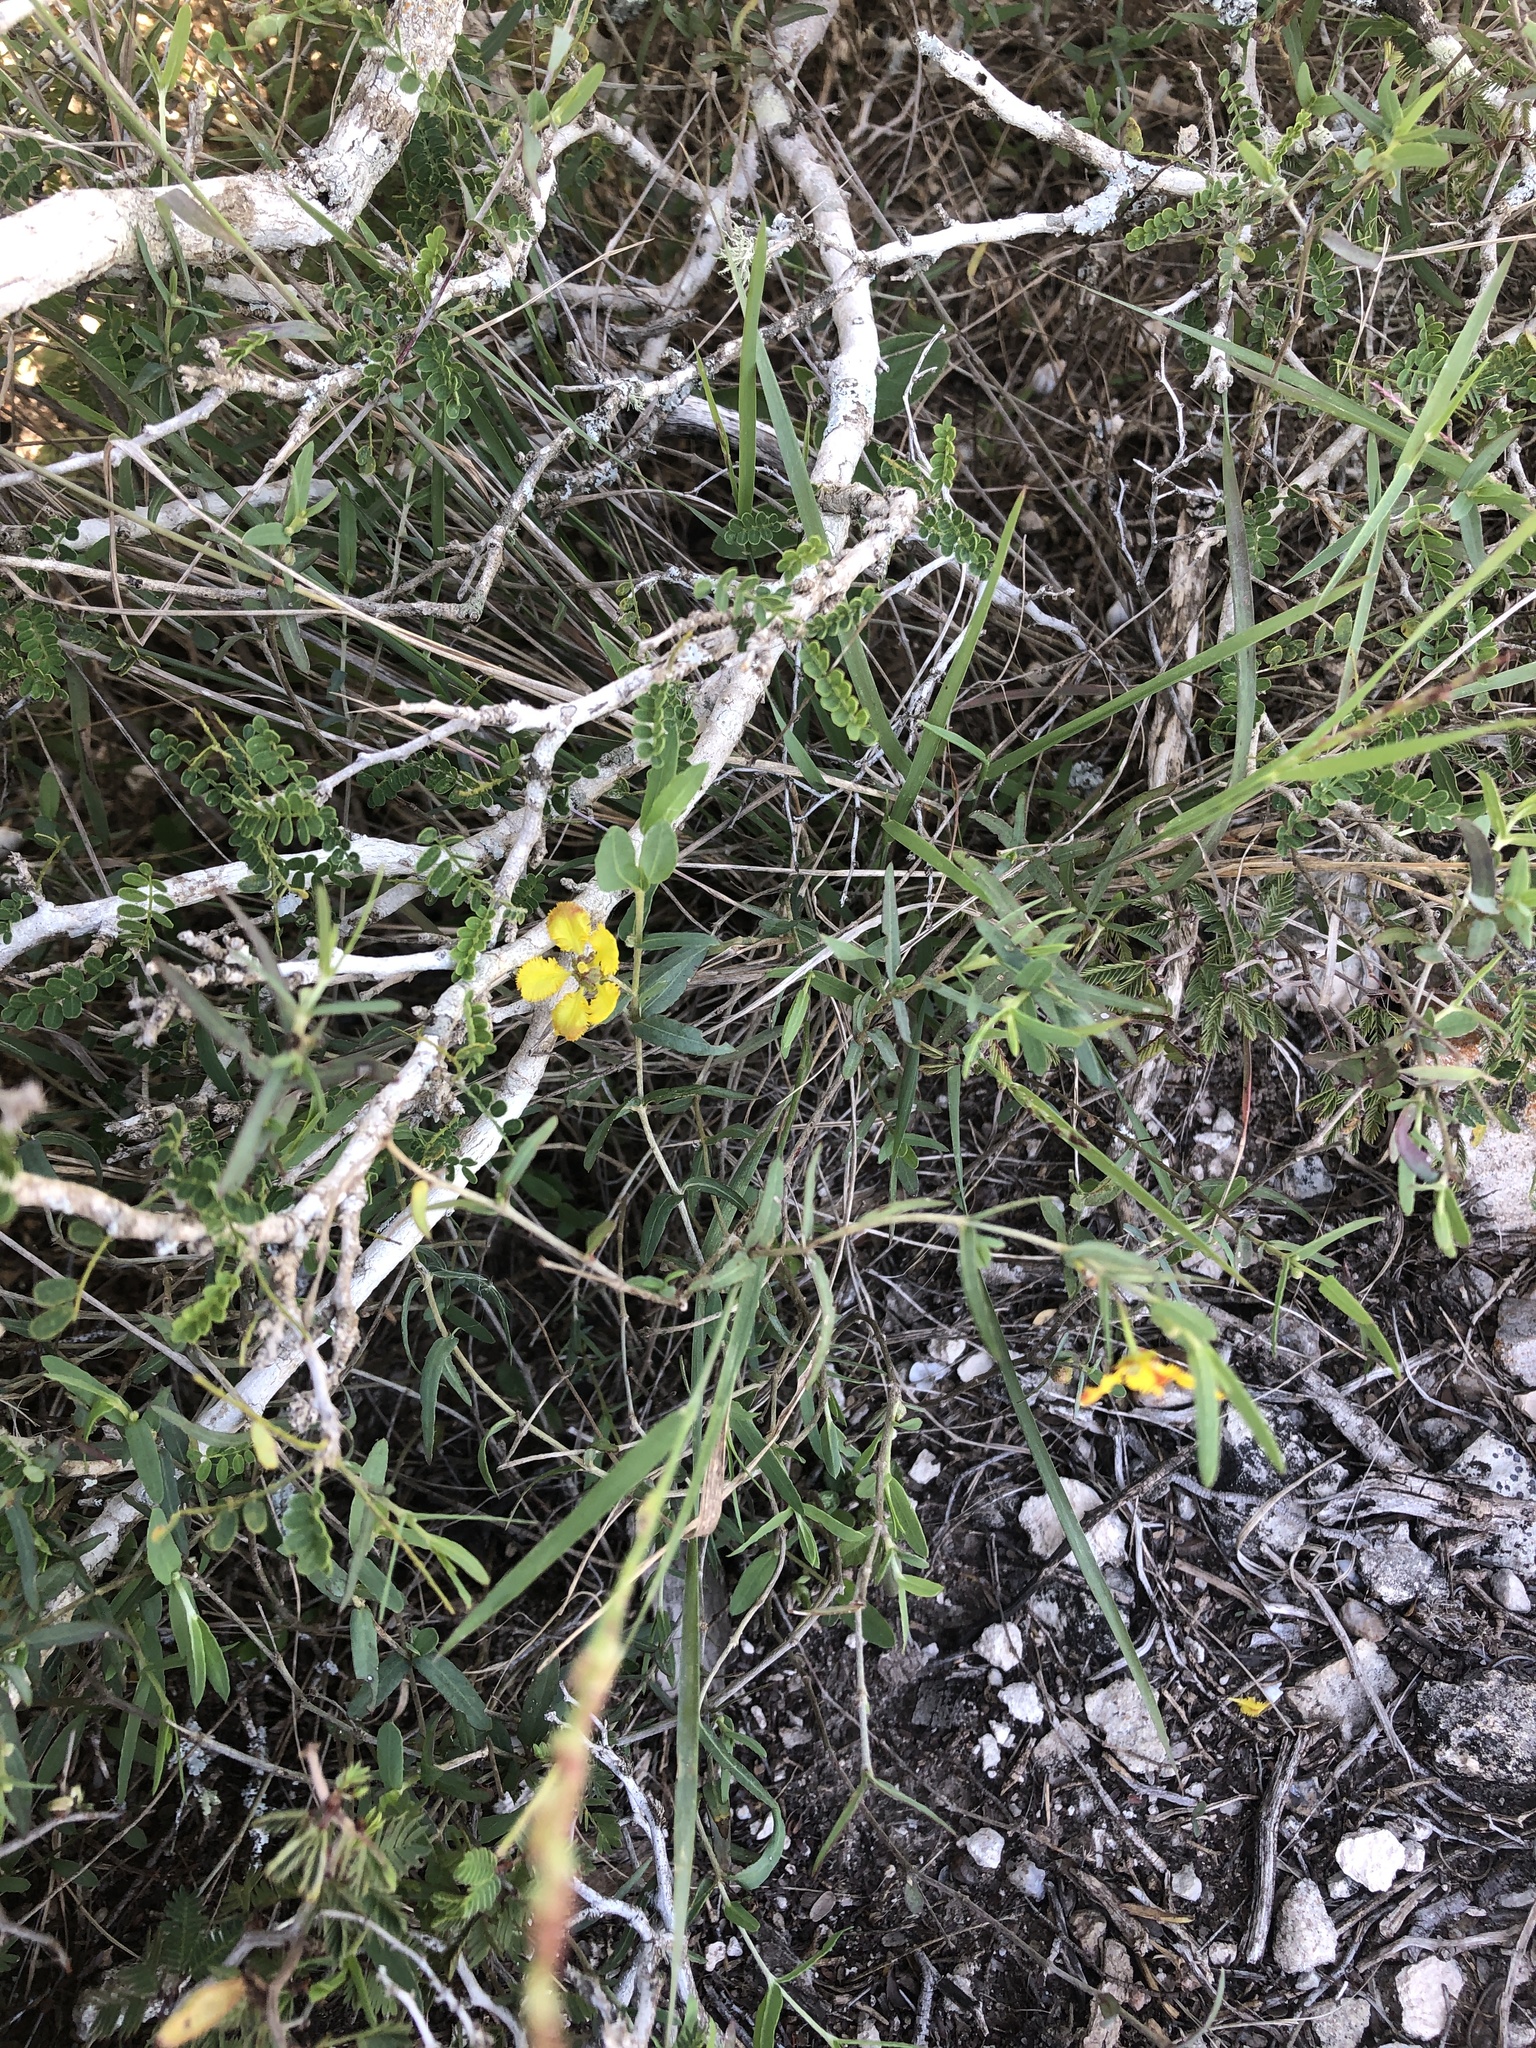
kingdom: Plantae
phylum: Tracheophyta
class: Magnoliopsida
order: Malpighiales
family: Malpighiaceae
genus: Aspicarpa
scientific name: Aspicarpa hyssopifolia
